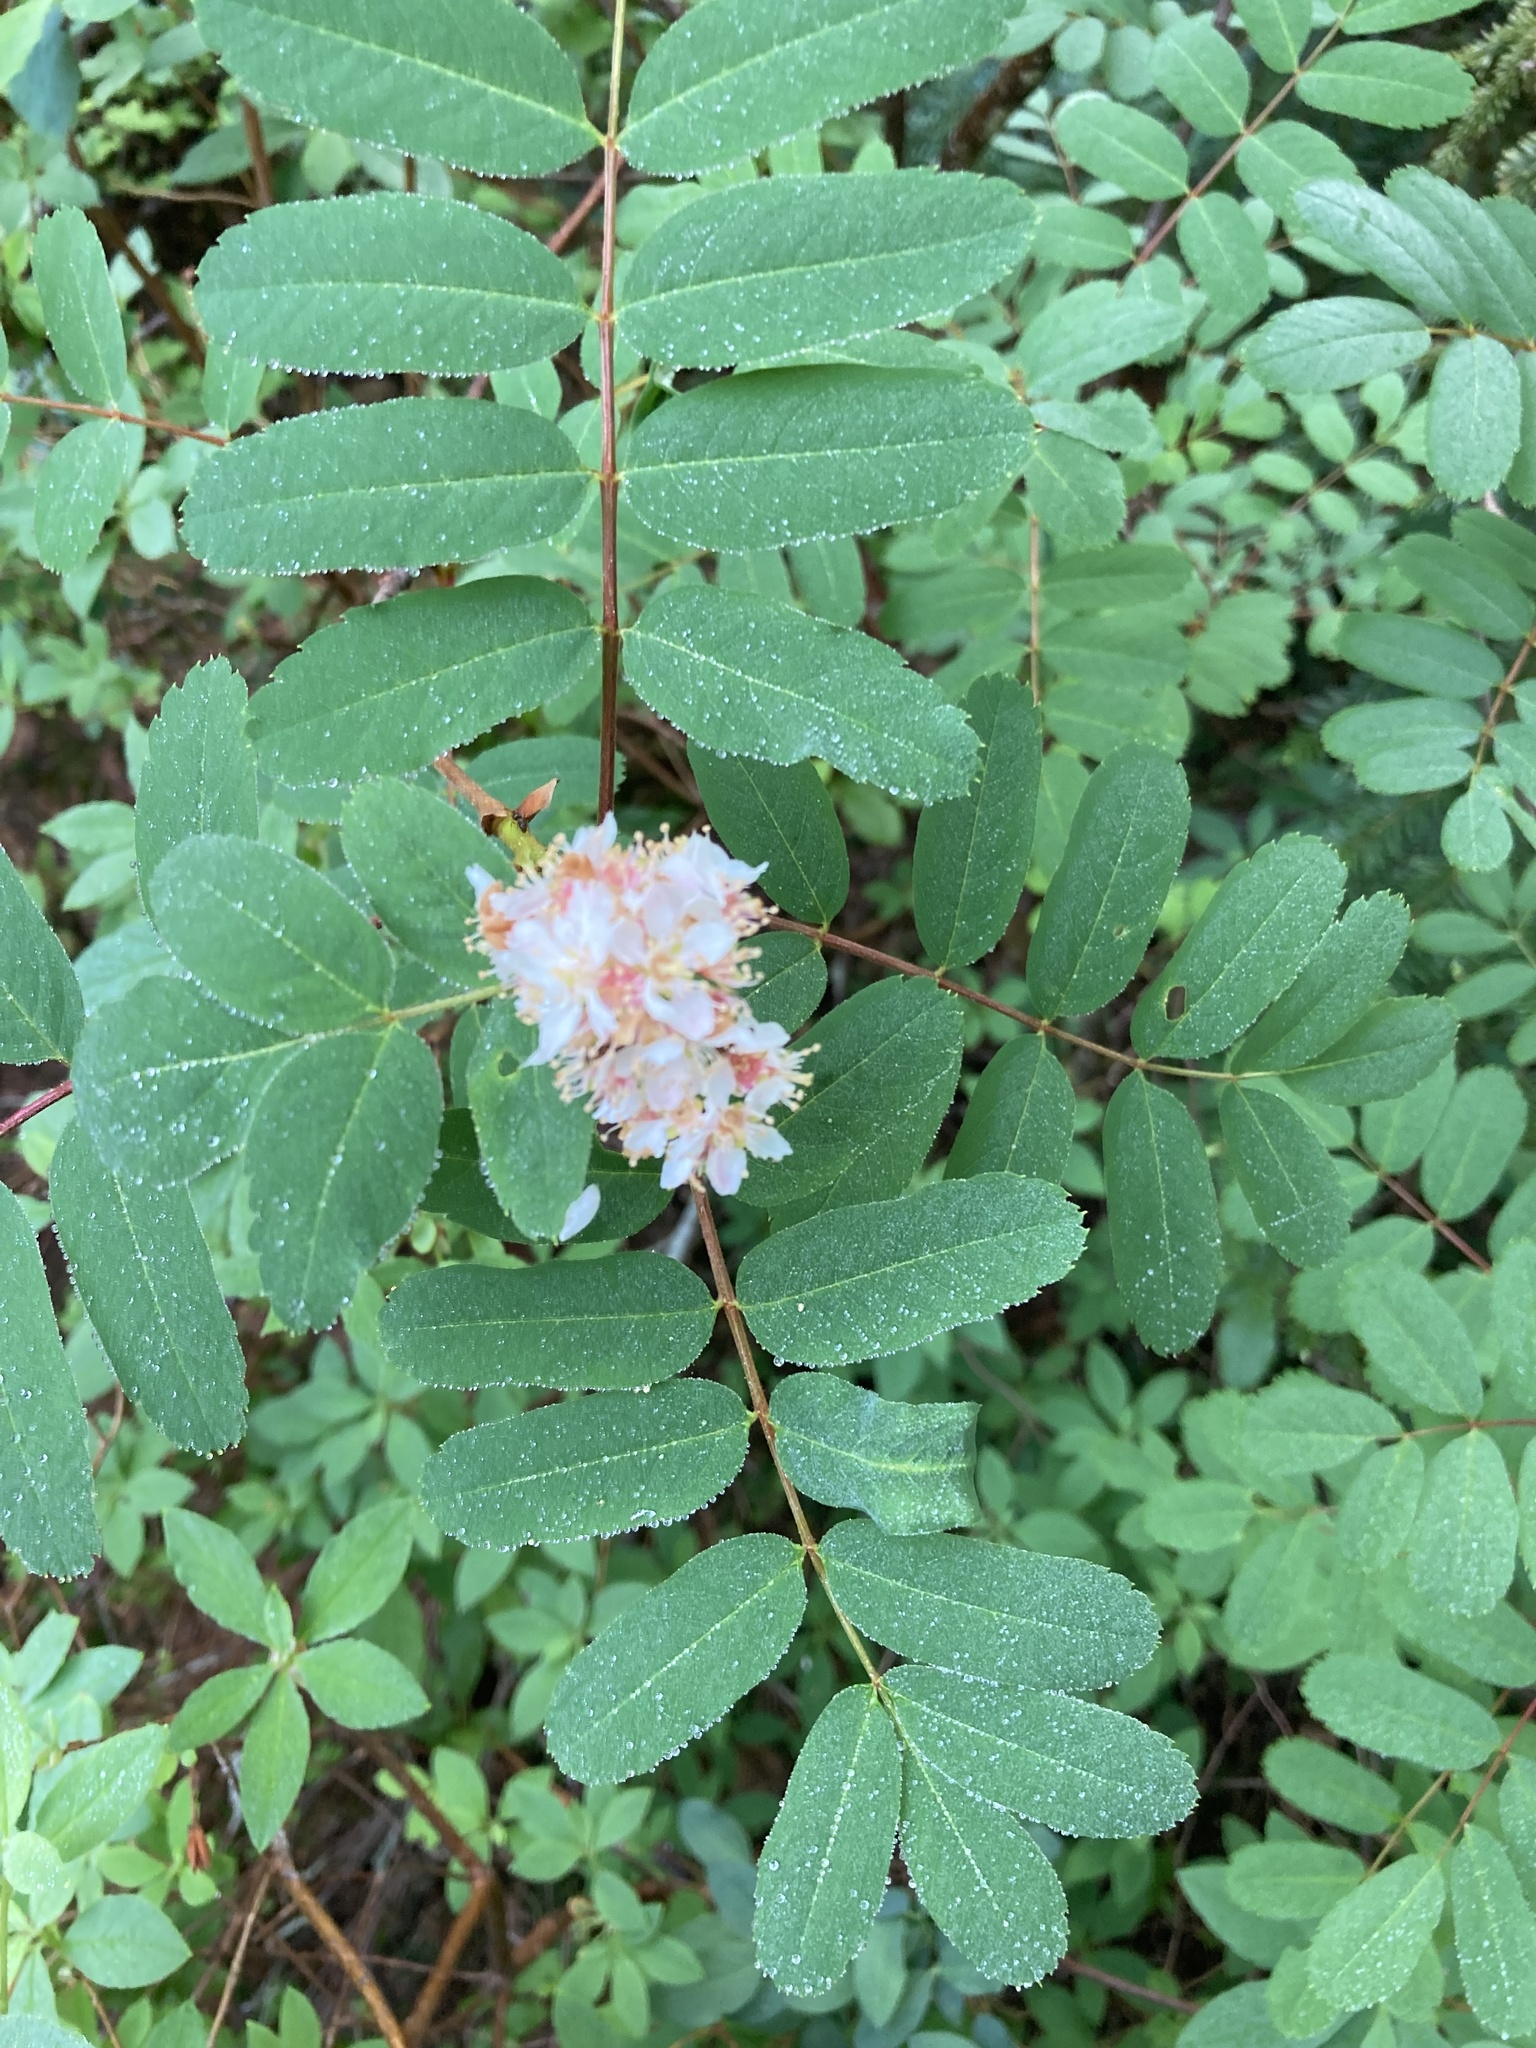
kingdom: Plantae
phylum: Tracheophyta
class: Magnoliopsida
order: Rosales
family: Rosaceae
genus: Sorbus
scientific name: Sorbus sitchensis
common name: Sitka mountain-ash
